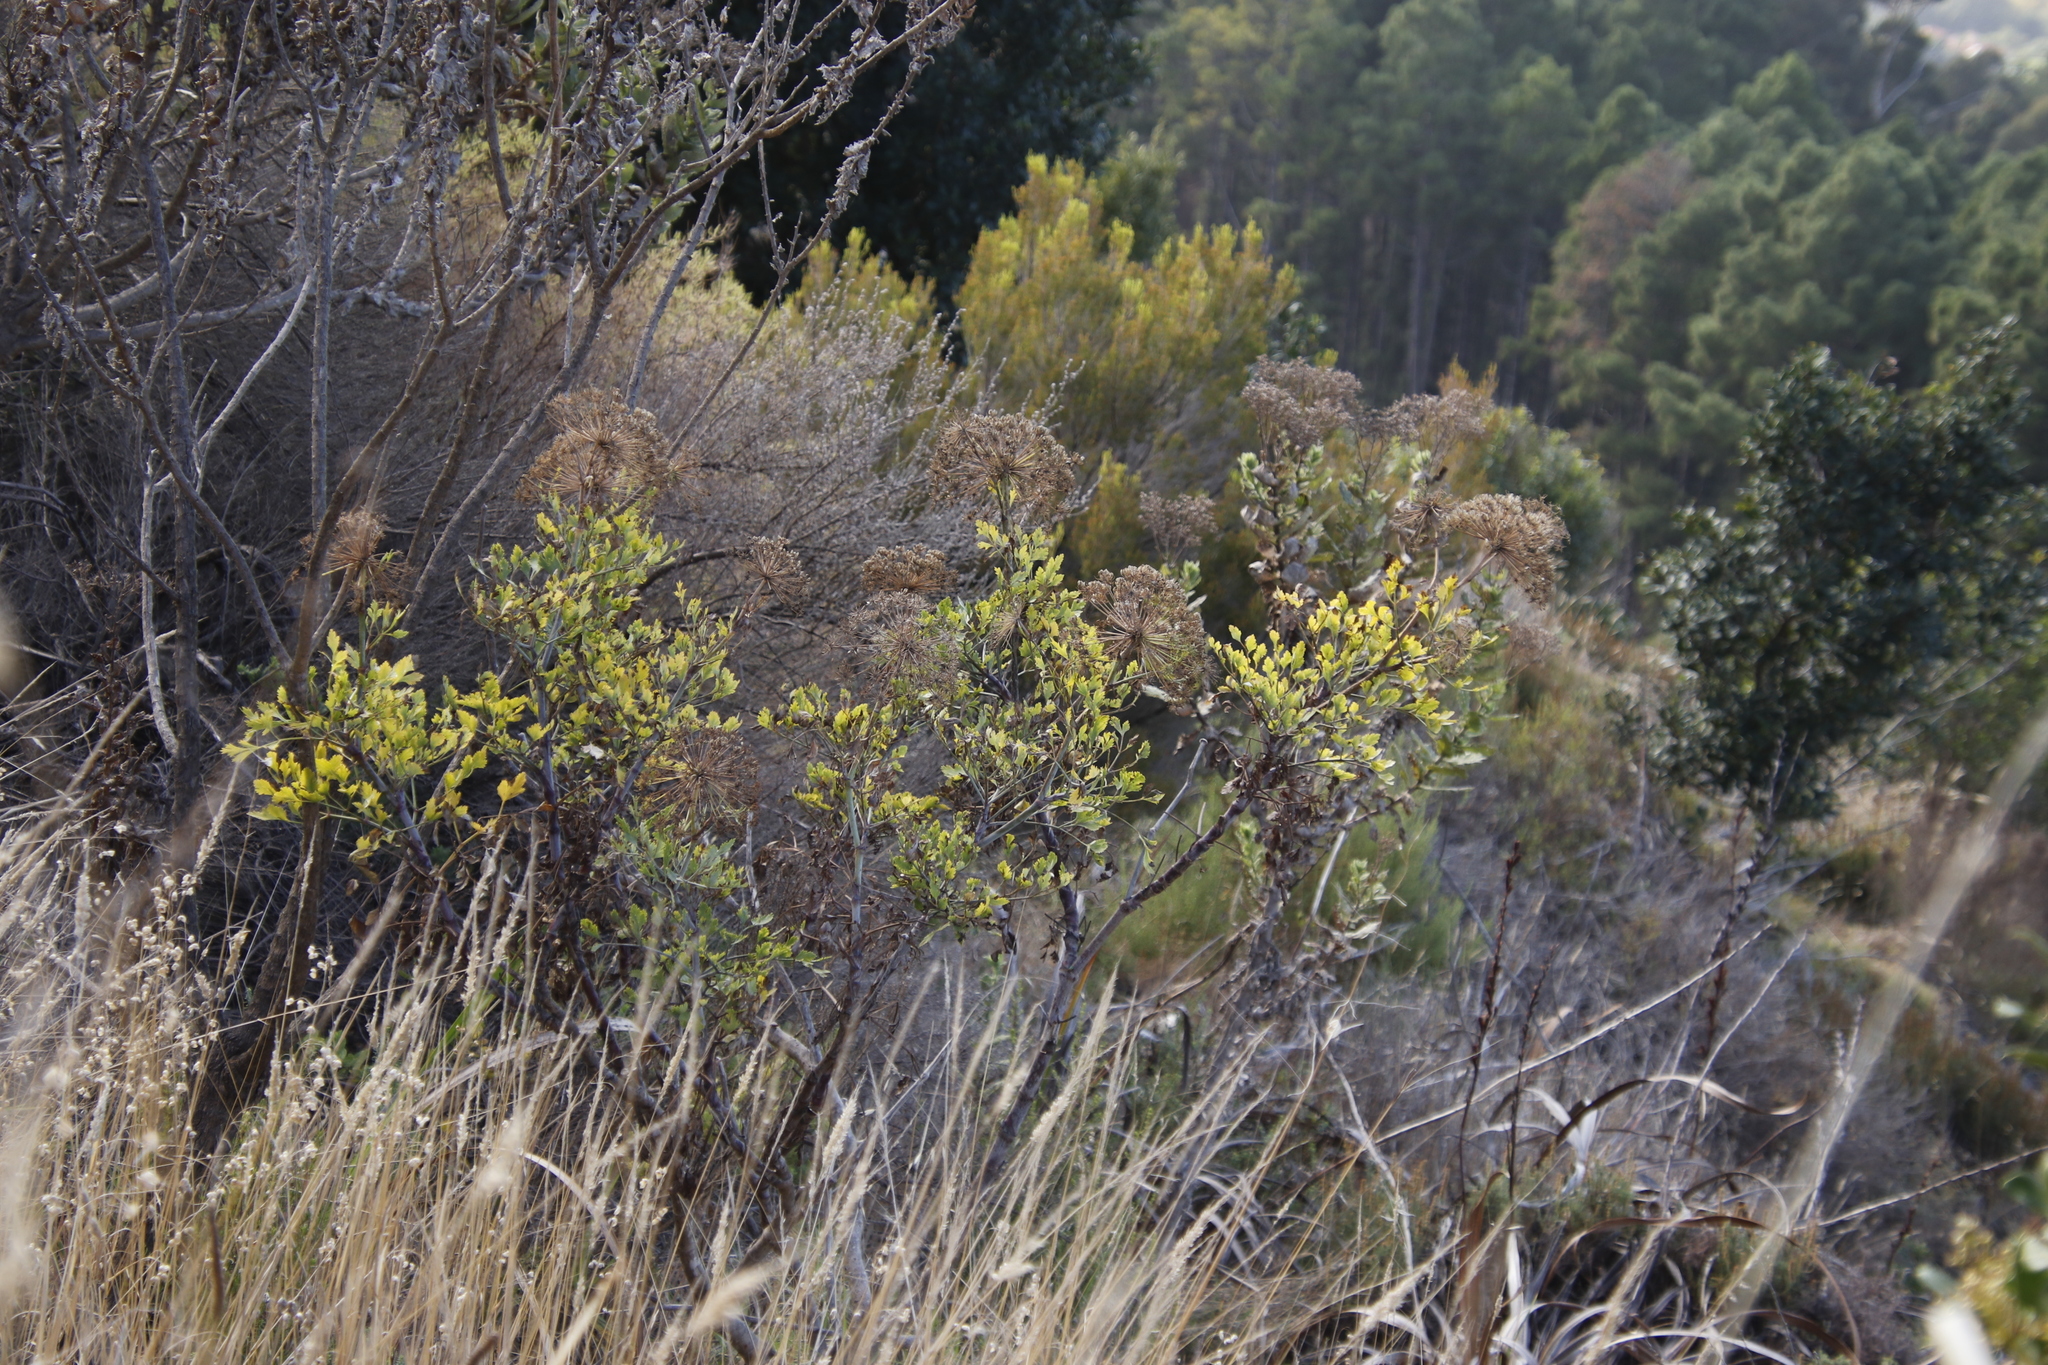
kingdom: Plantae
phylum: Tracheophyta
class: Magnoliopsida
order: Apiales
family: Apiaceae
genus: Notobubon
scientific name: Notobubon galbanum
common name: Blisterbush
